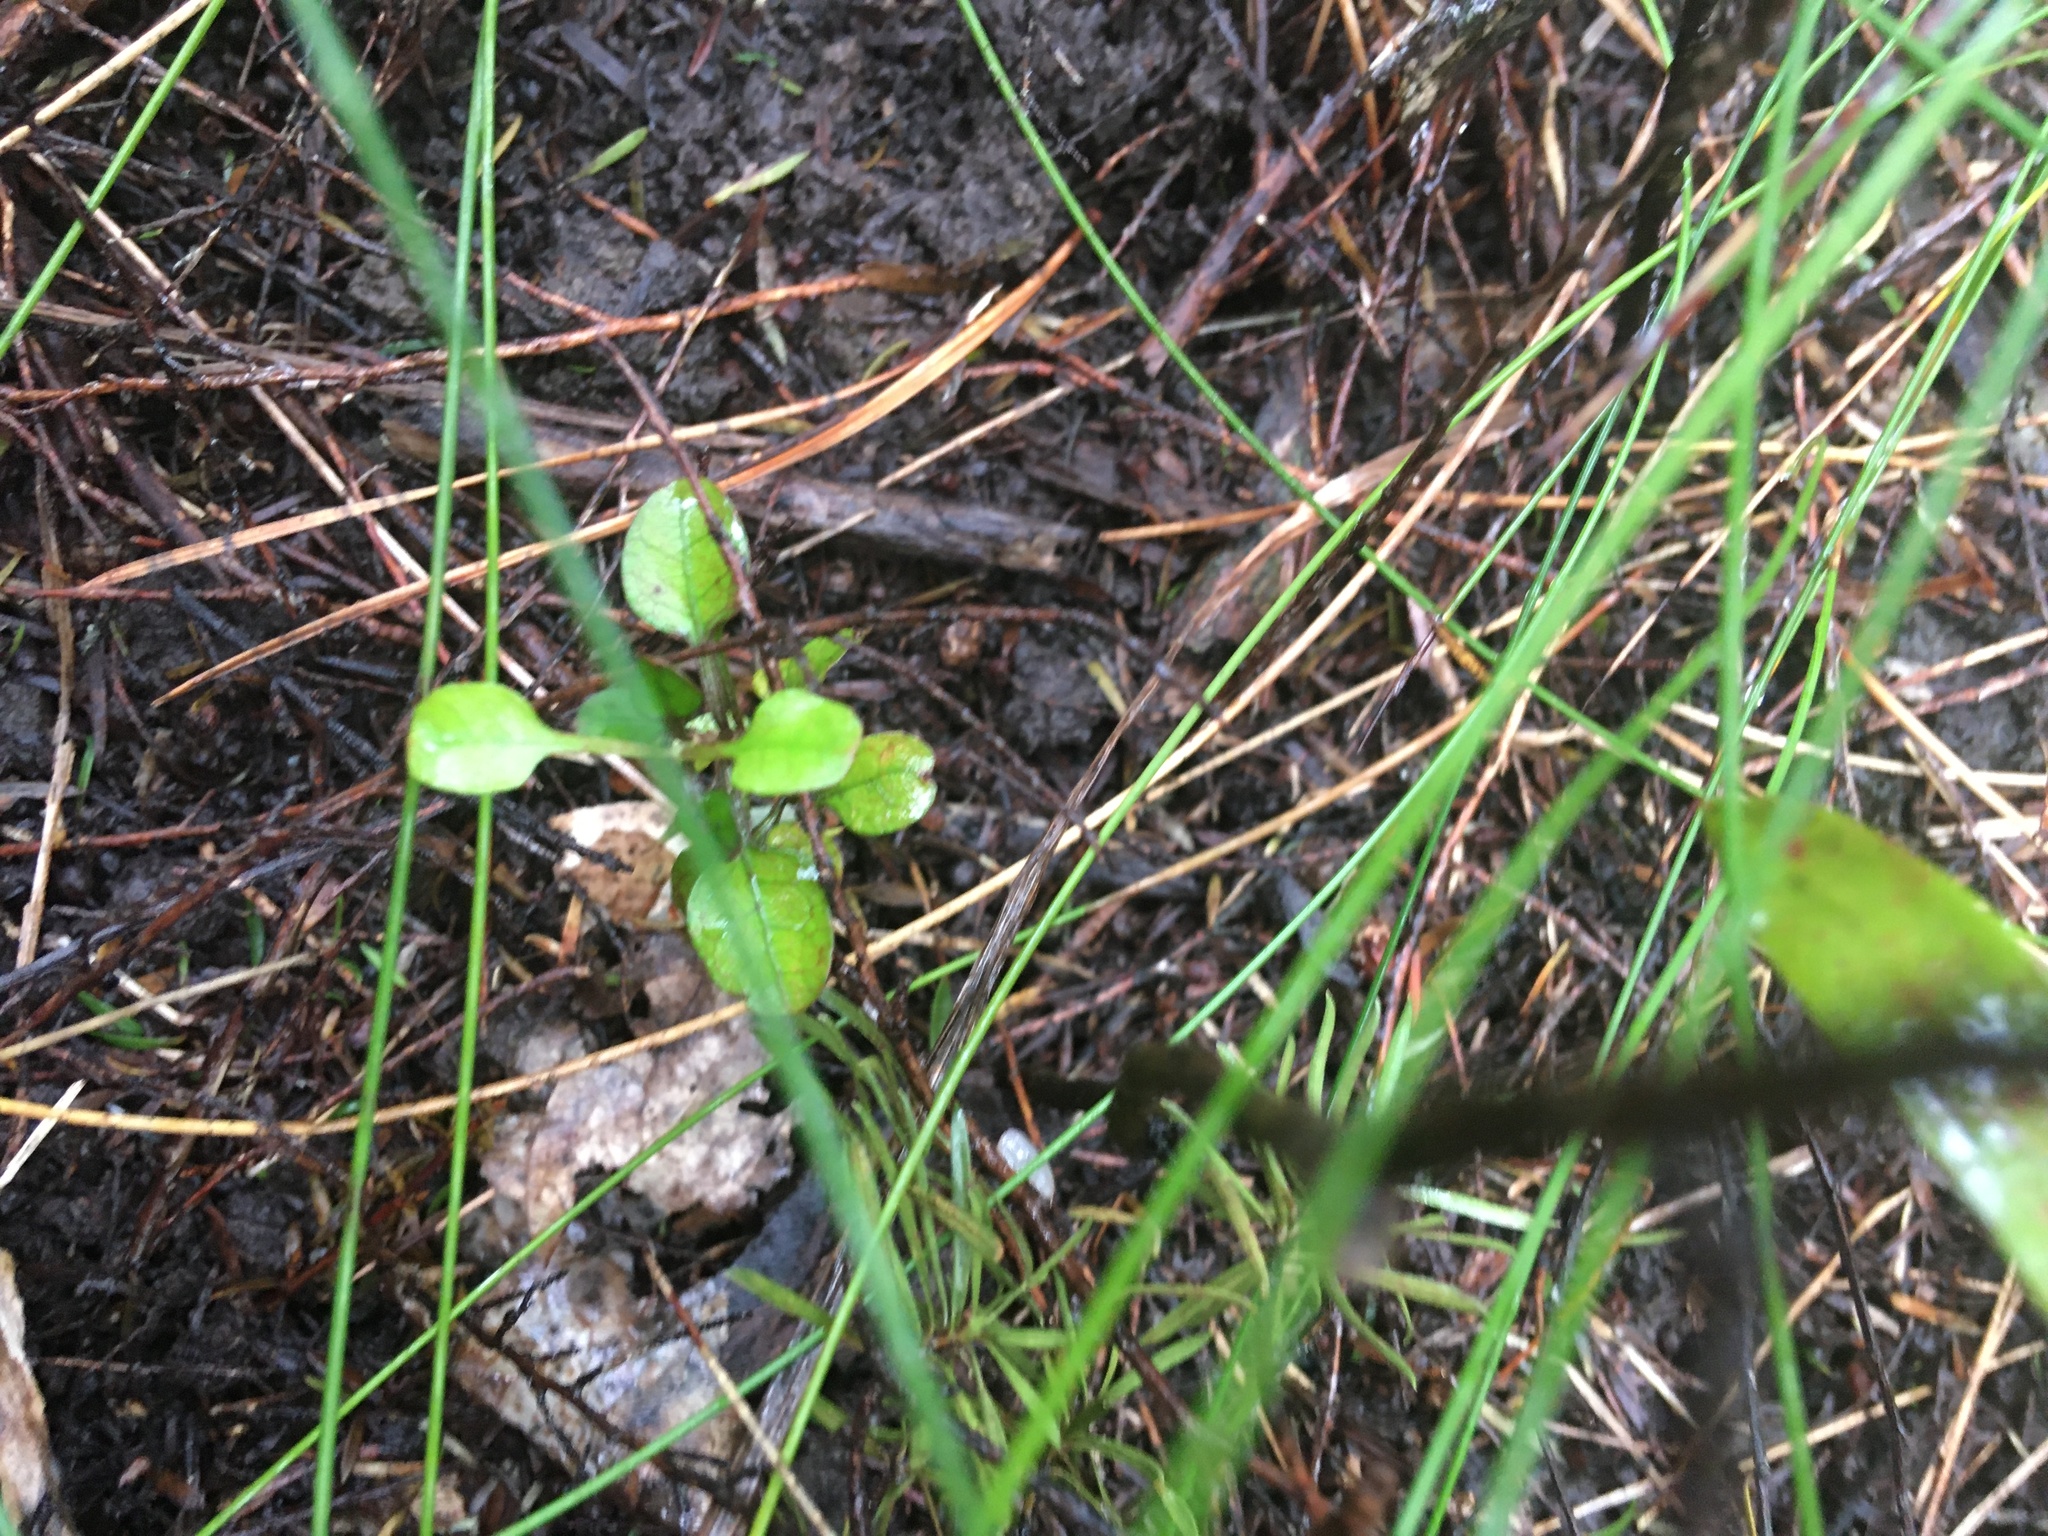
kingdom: Plantae
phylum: Tracheophyta
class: Magnoliopsida
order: Gentianales
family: Rubiaceae
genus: Coprosma
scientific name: Coprosma spathulata
